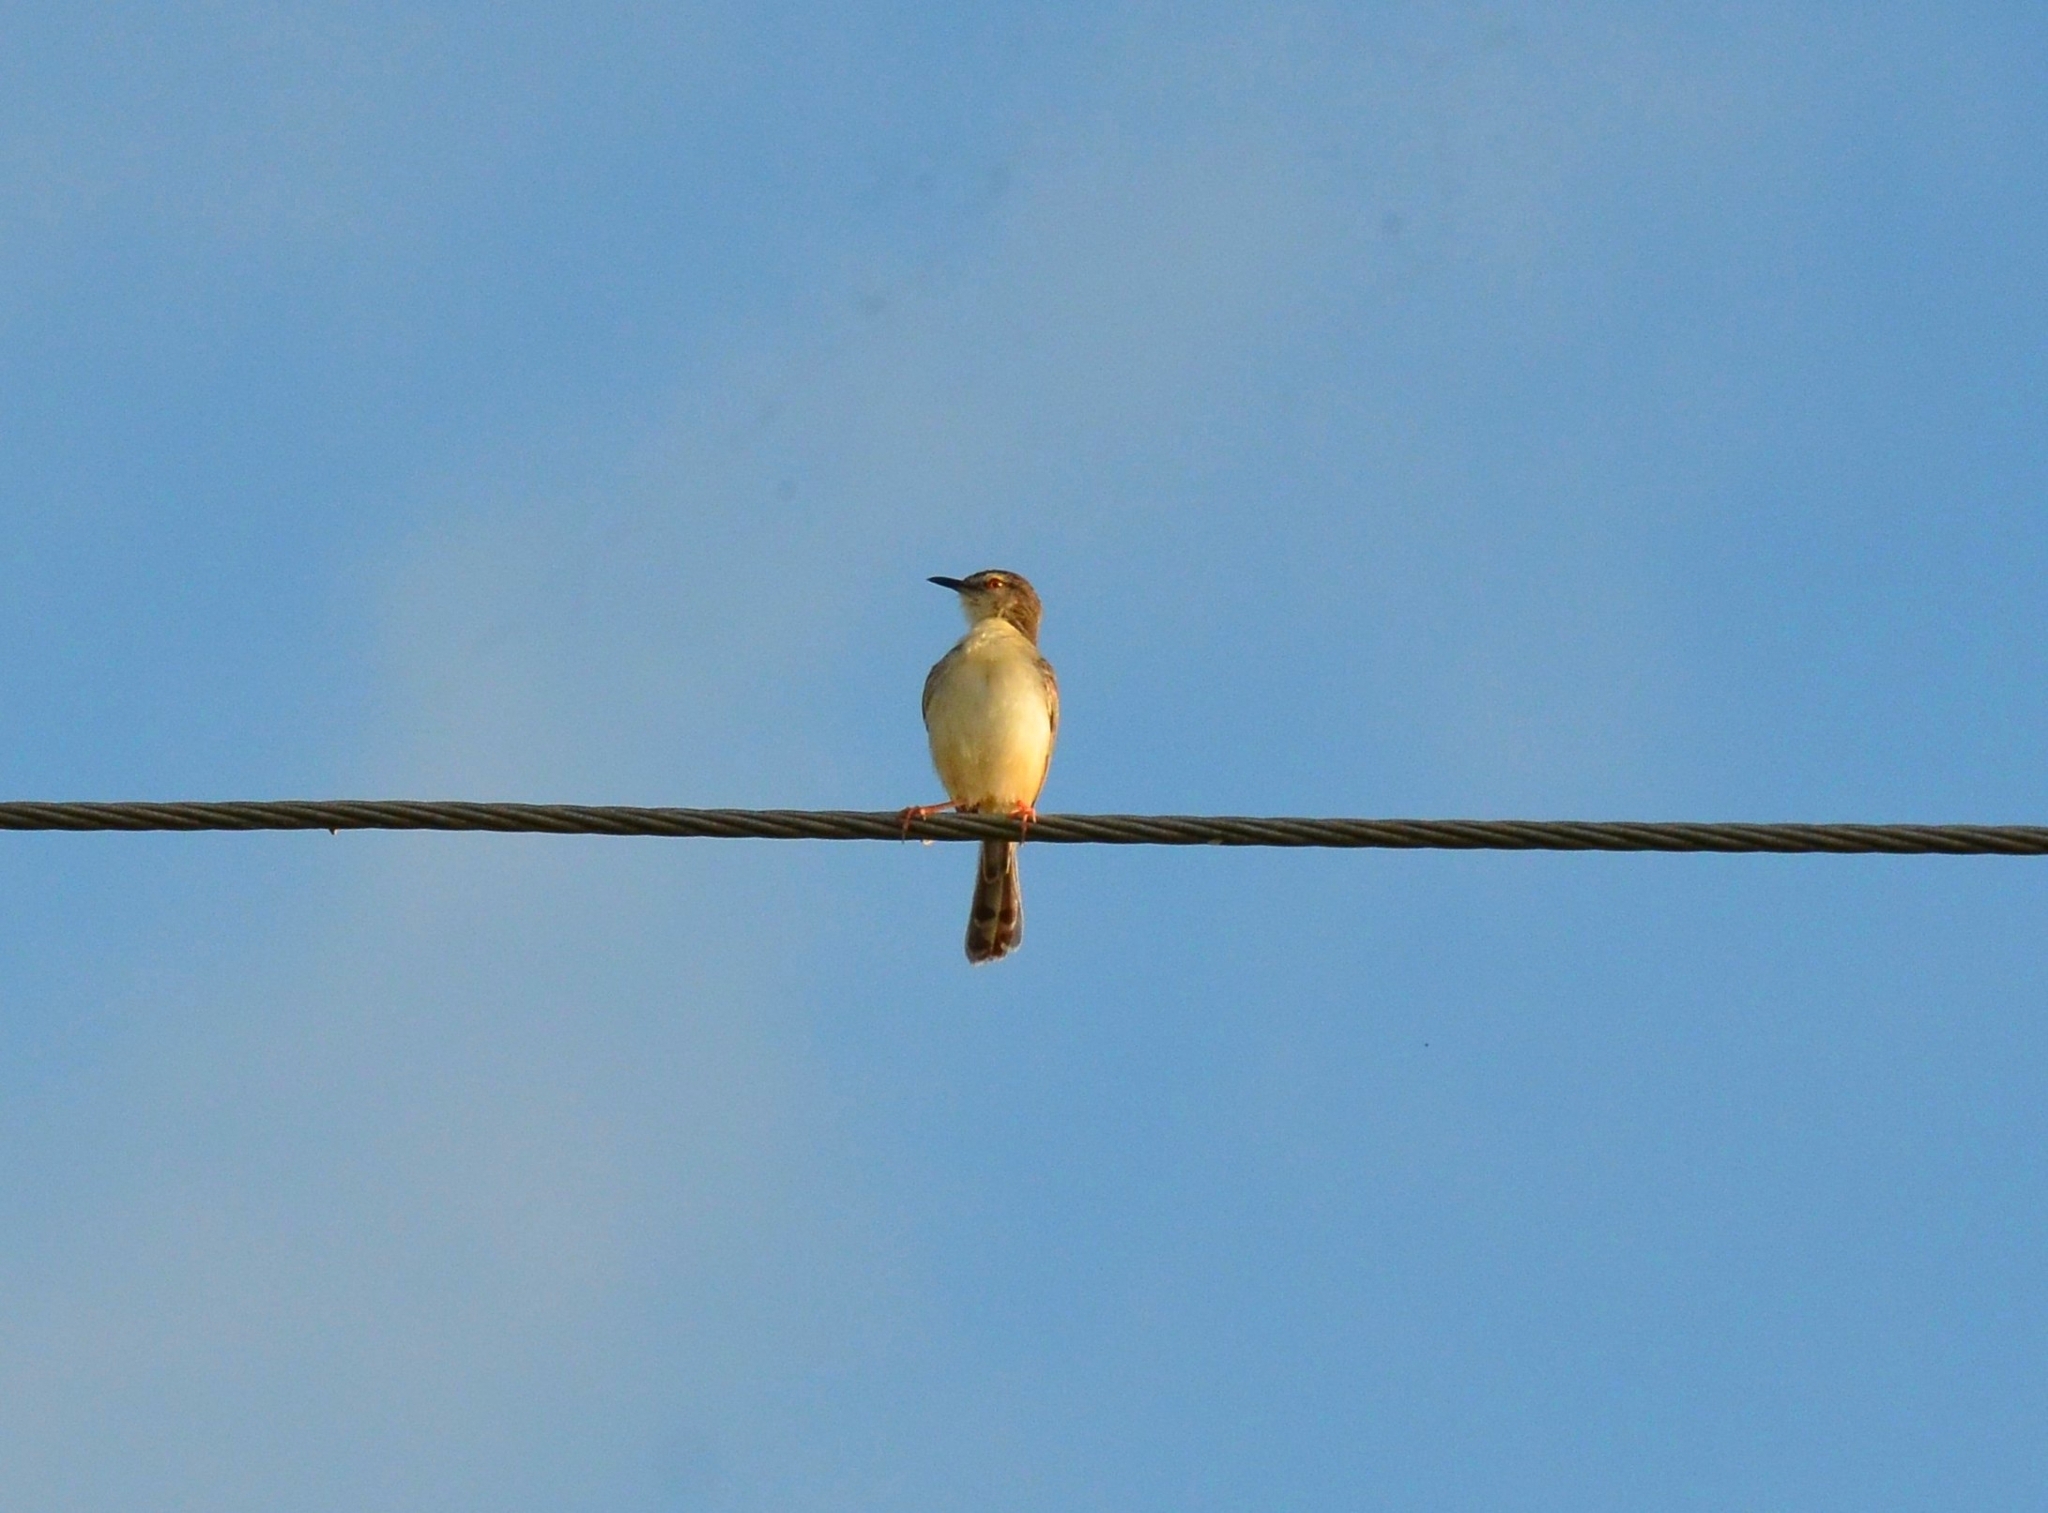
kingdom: Animalia
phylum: Chordata
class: Aves
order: Passeriformes
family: Cisticolidae
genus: Prinia
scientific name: Prinia inornata
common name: Plain prinia
